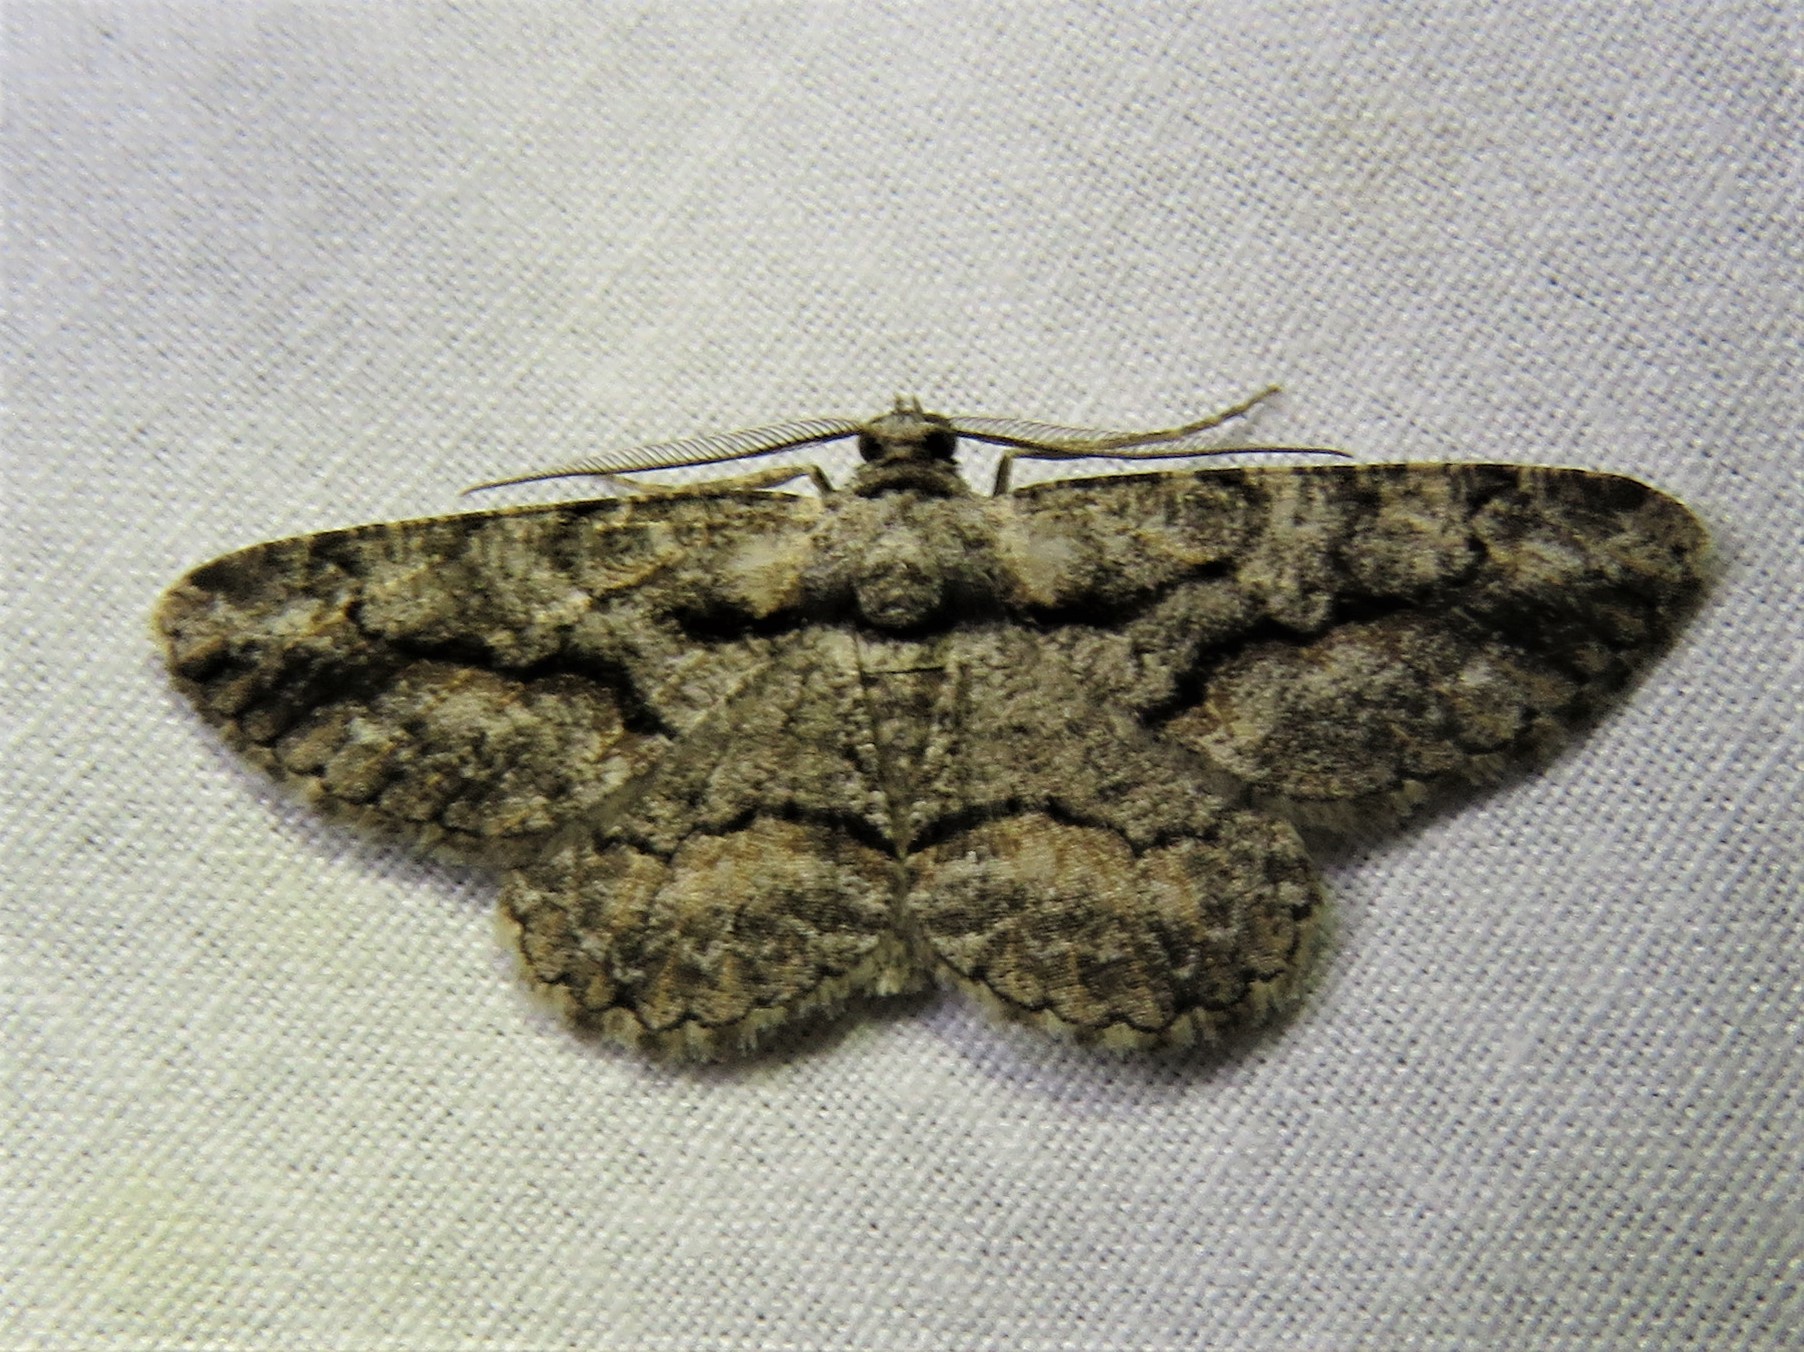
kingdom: Animalia
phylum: Arthropoda
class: Insecta
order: Lepidoptera
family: Geometridae
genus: Anavitrinella
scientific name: Anavitrinella atristrigaria
